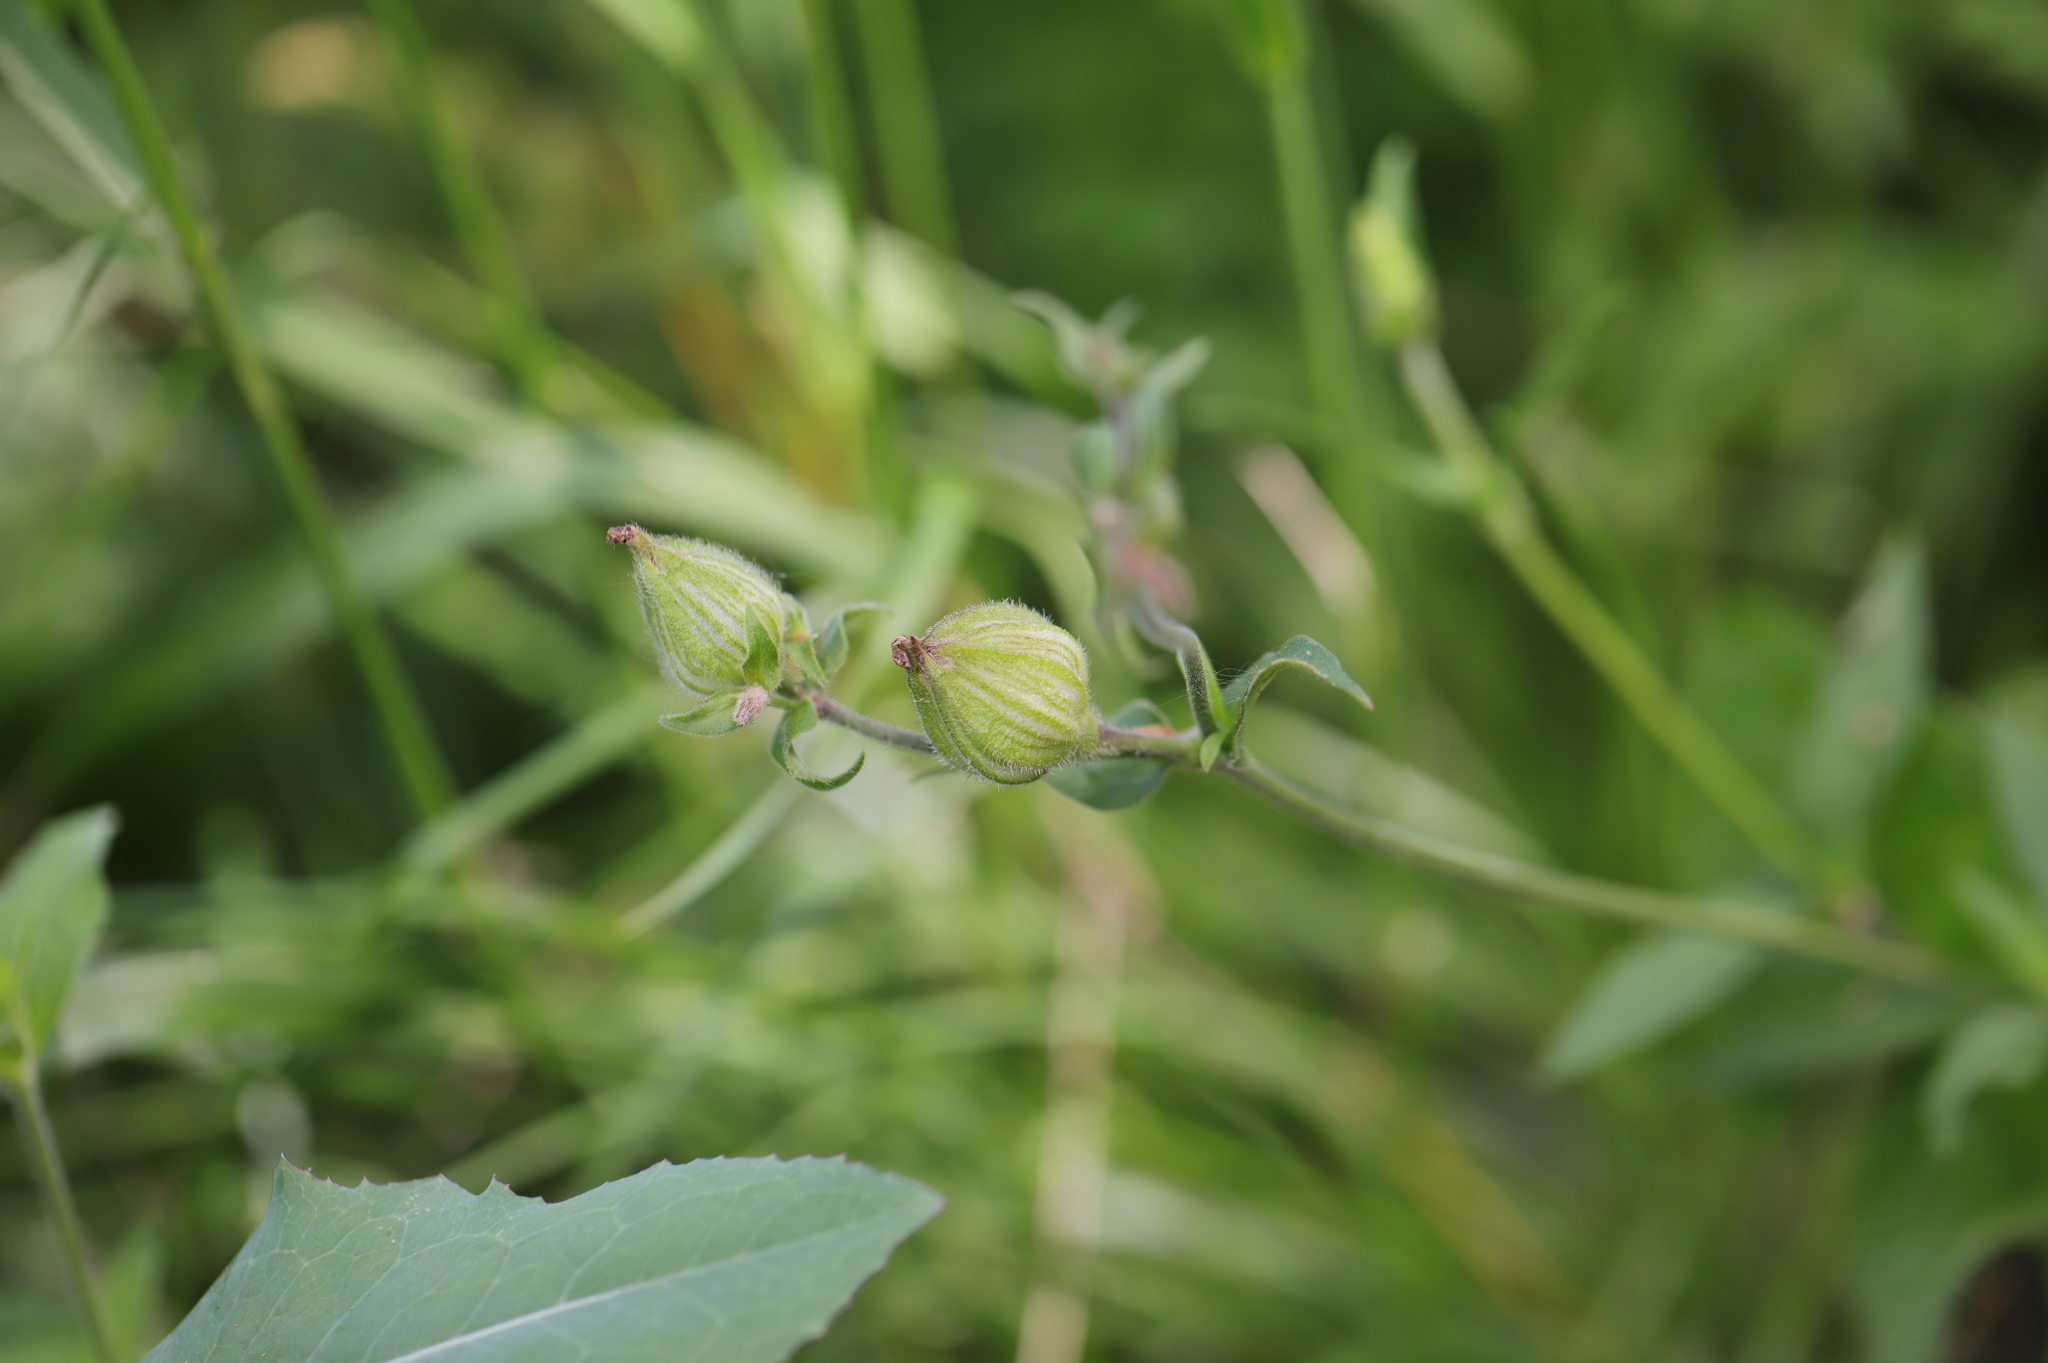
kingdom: Plantae
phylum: Tracheophyta
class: Magnoliopsida
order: Caryophyllales
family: Caryophyllaceae
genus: Silene
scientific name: Silene latifolia
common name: White campion
